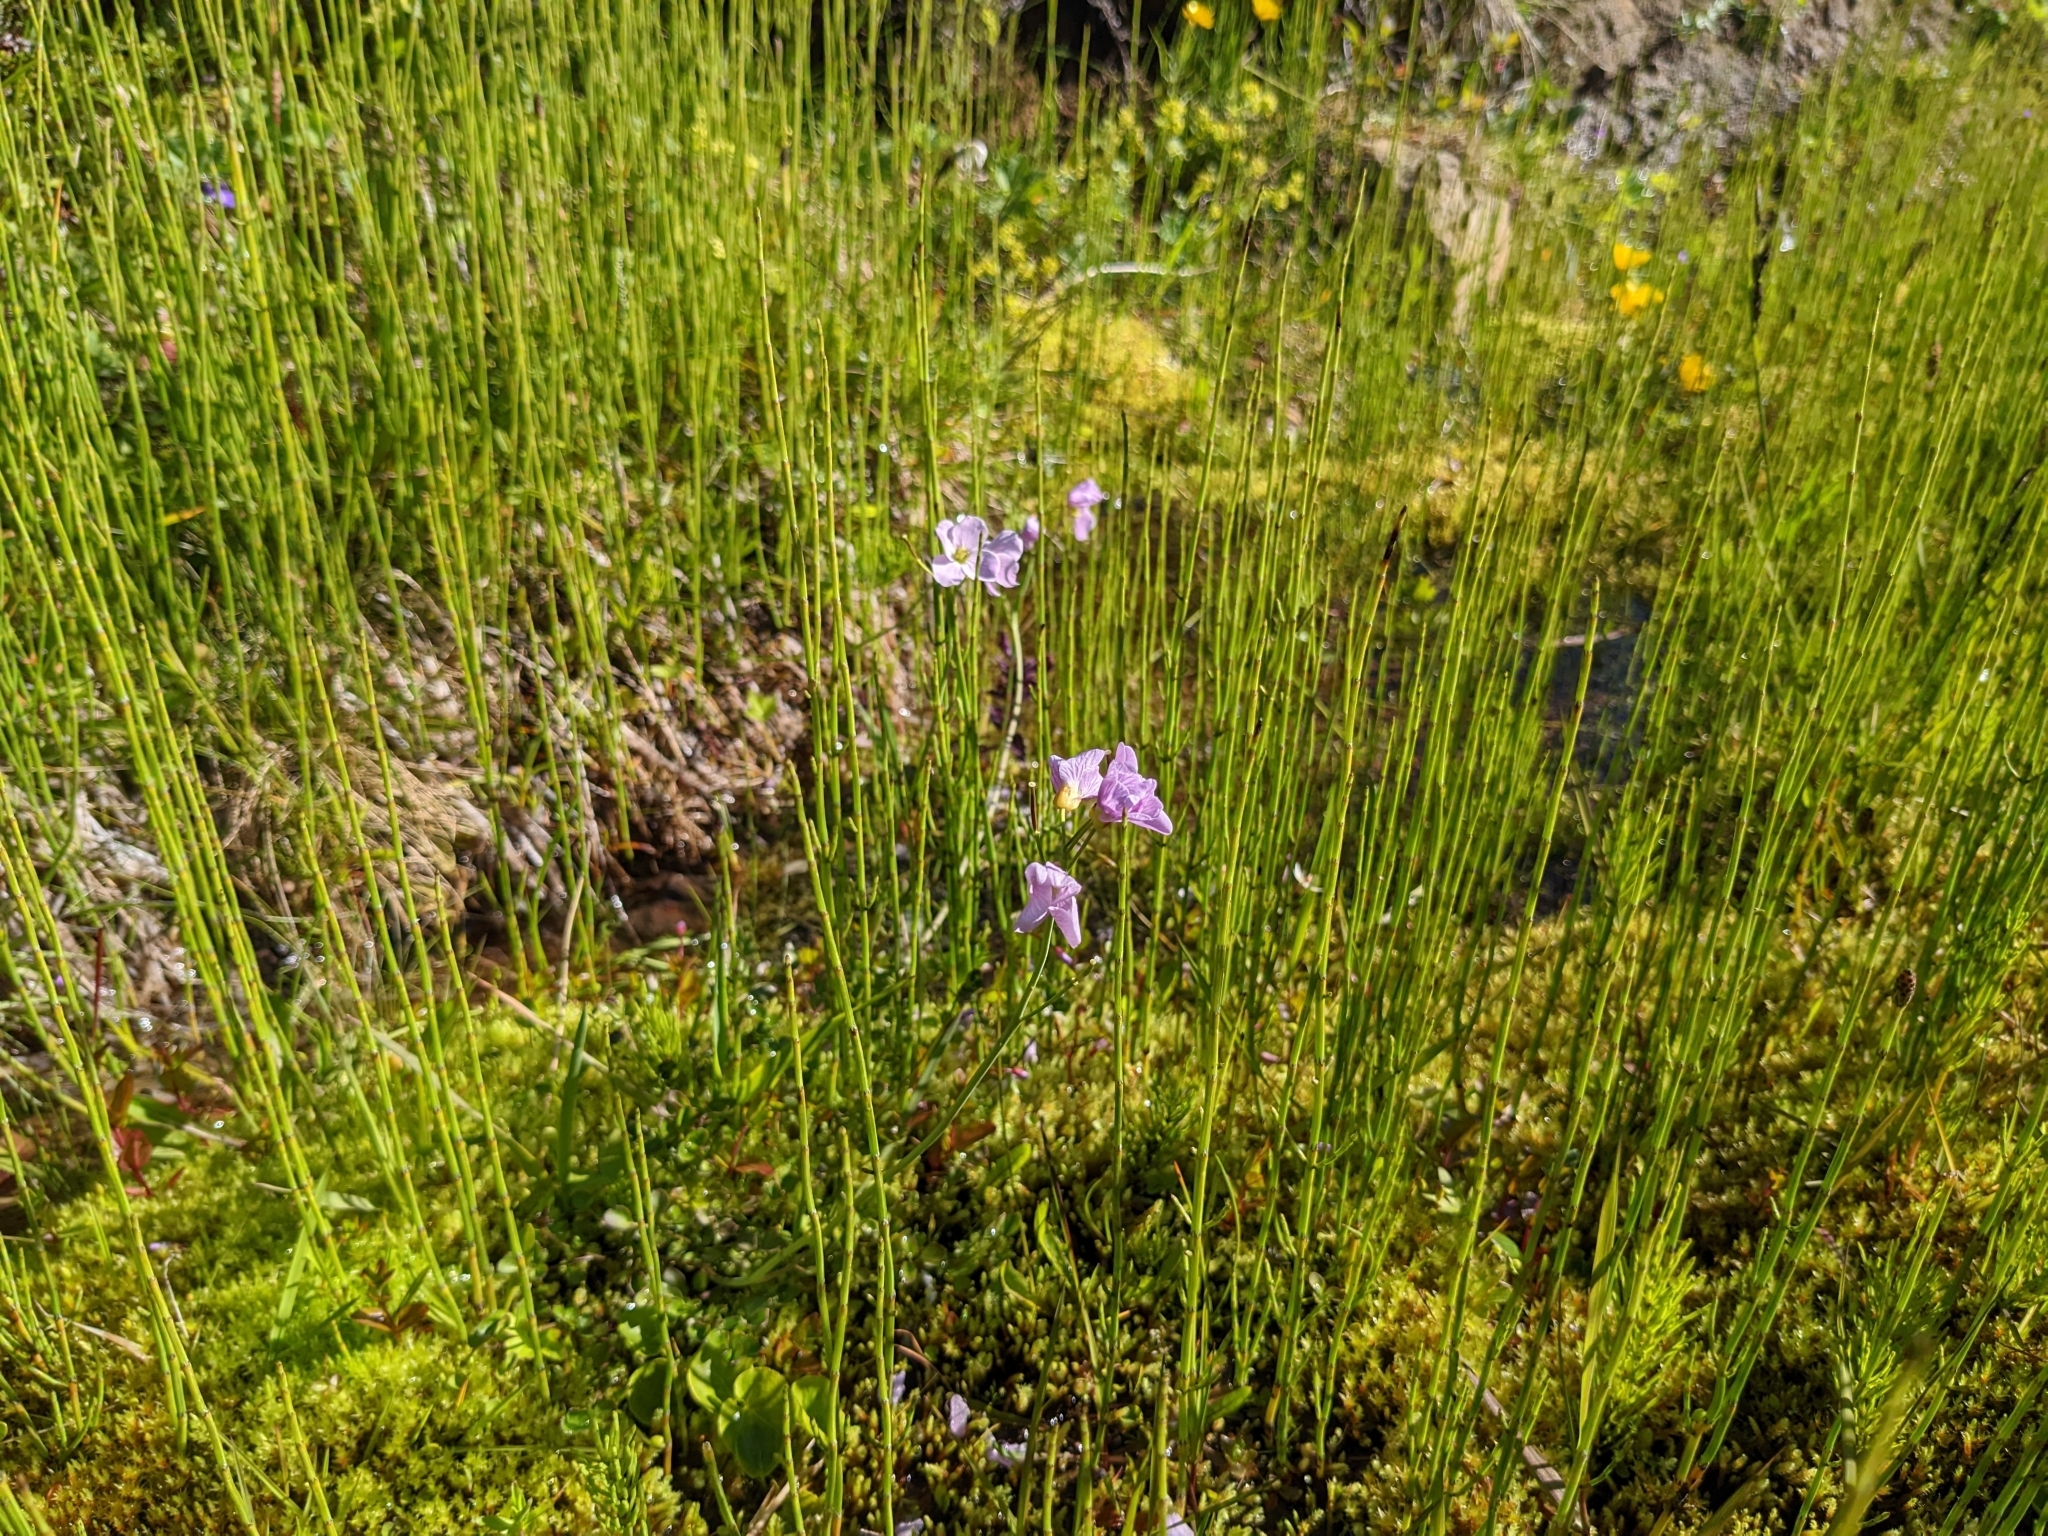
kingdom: Plantae
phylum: Tracheophyta
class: Magnoliopsida
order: Brassicales
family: Brassicaceae
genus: Cardamine
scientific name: Cardamine pratensis
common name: Cuckoo flower
